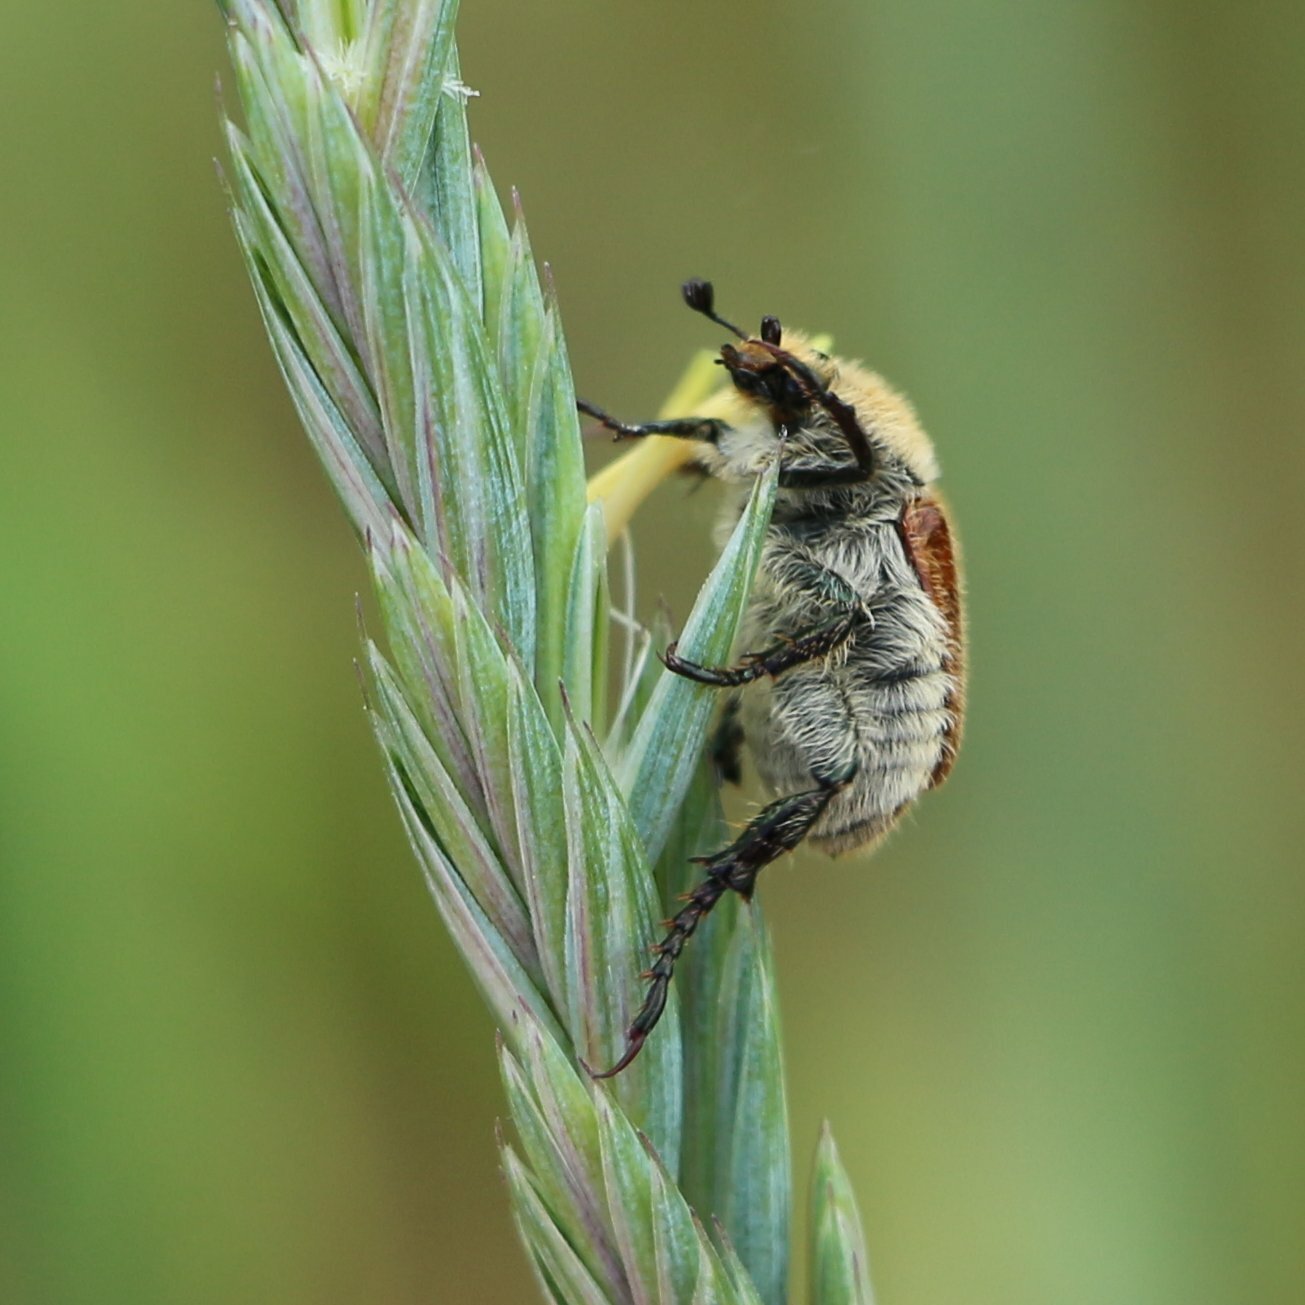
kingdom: Animalia
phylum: Arthropoda
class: Insecta
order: Coleoptera
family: Scarabaeidae
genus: Chaetopteroplia
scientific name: Chaetopteroplia segetum
